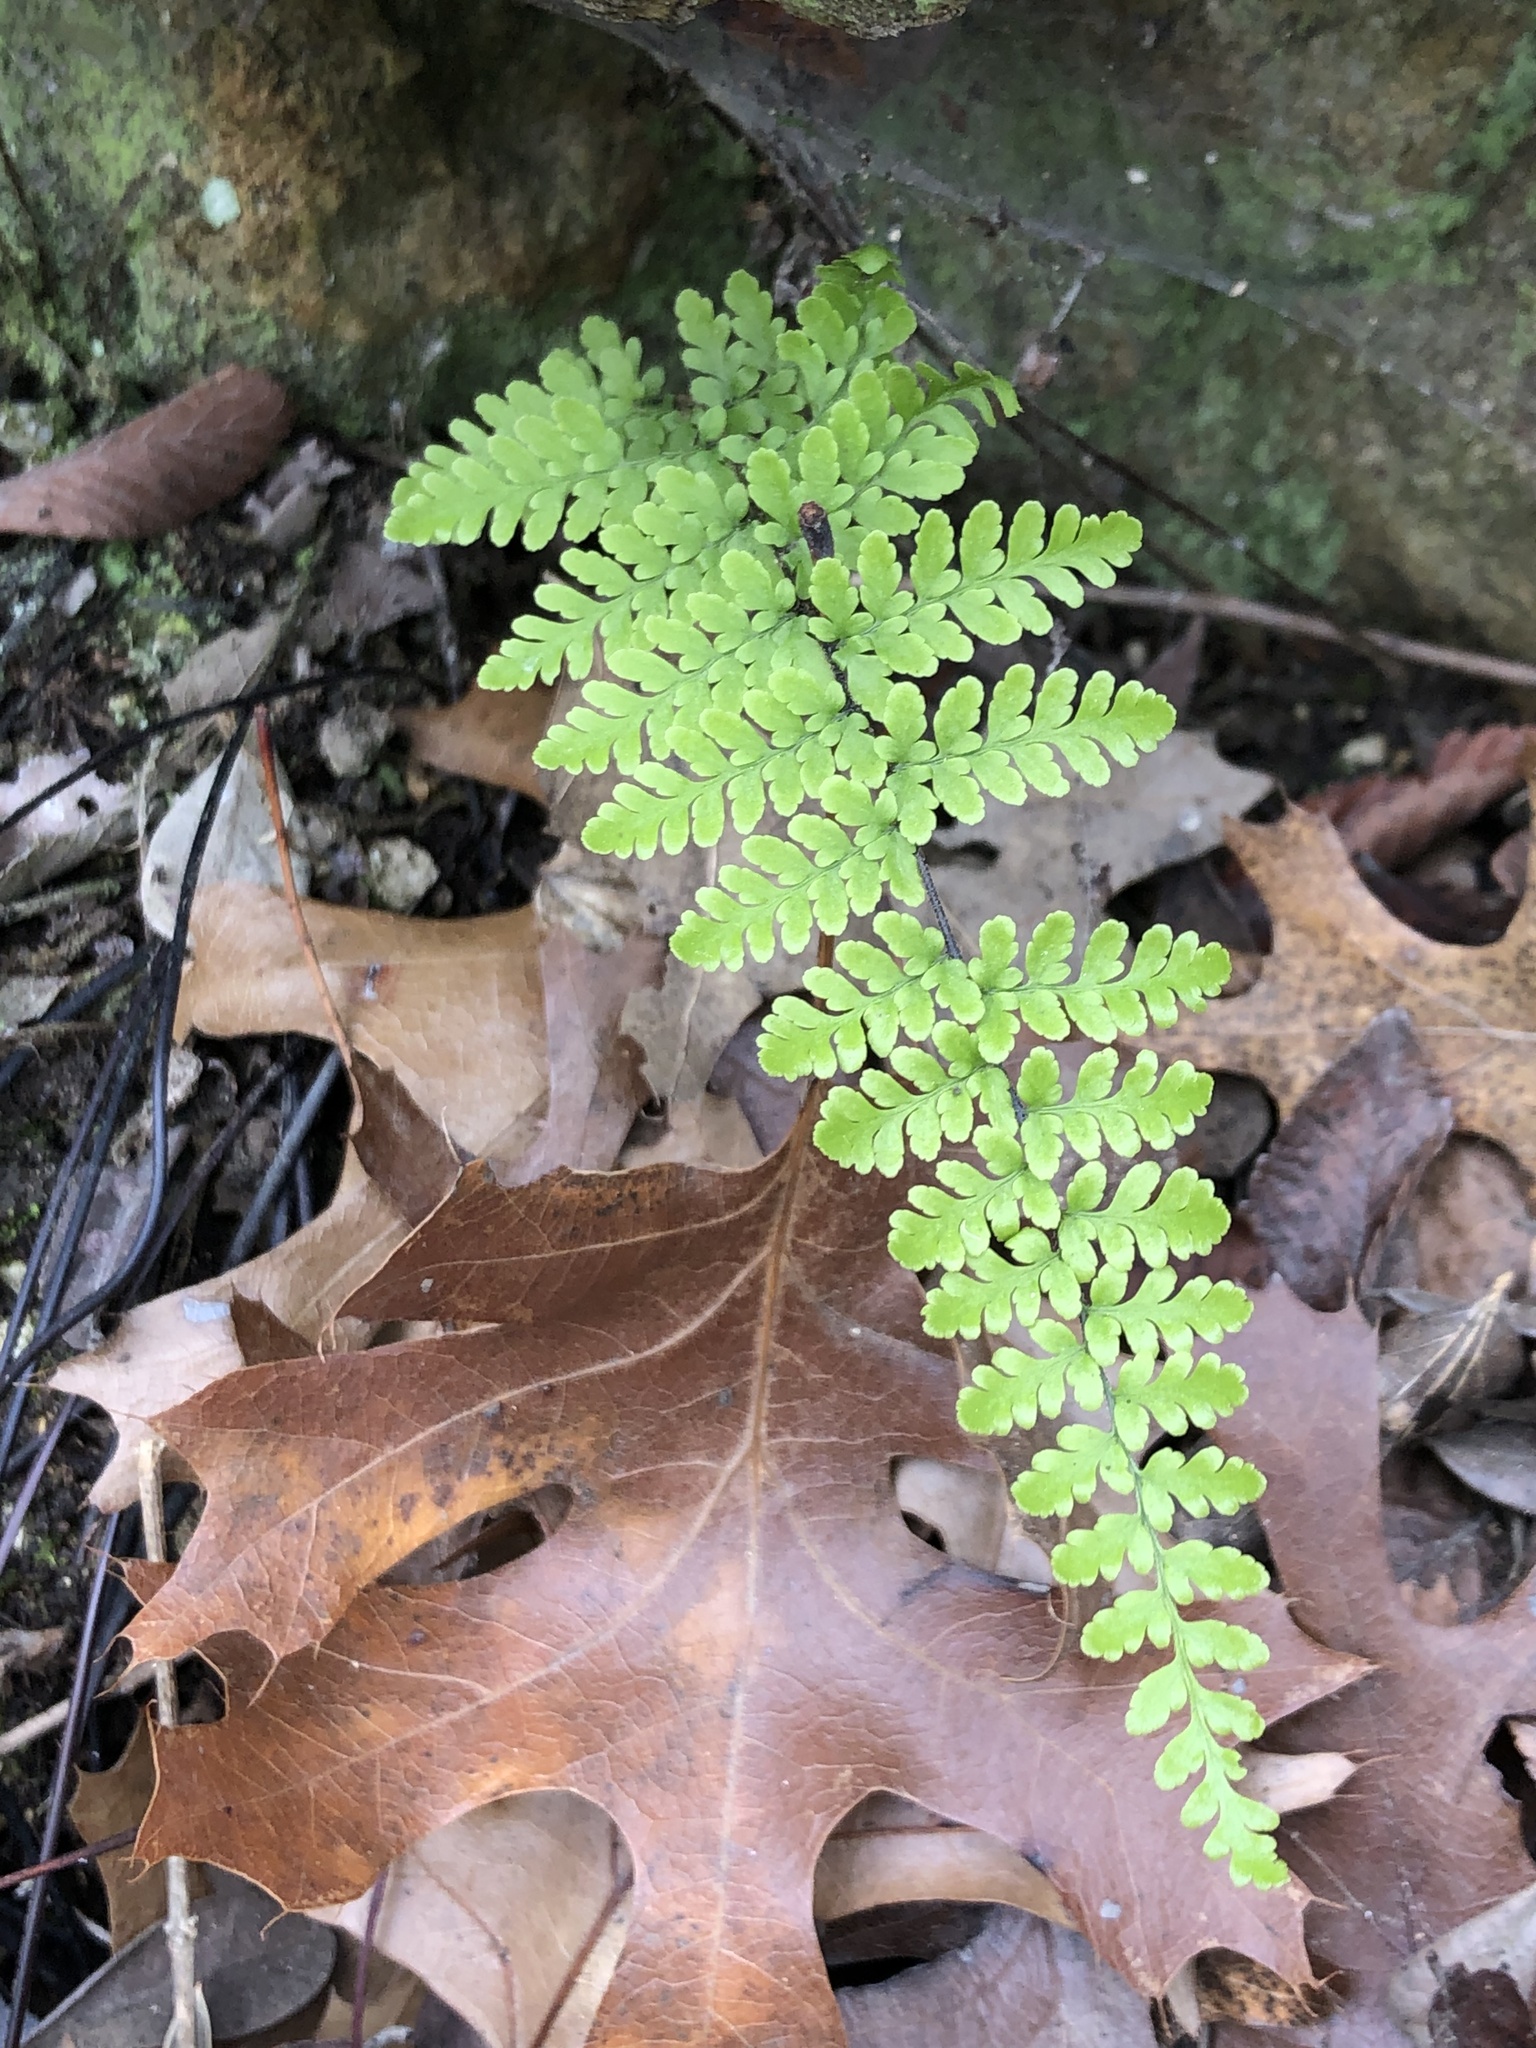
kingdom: Plantae
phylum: Tracheophyta
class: Polypodiopsida
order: Polypodiales
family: Pteridaceae
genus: Myriopteris
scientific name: Myriopteris alabamensis
